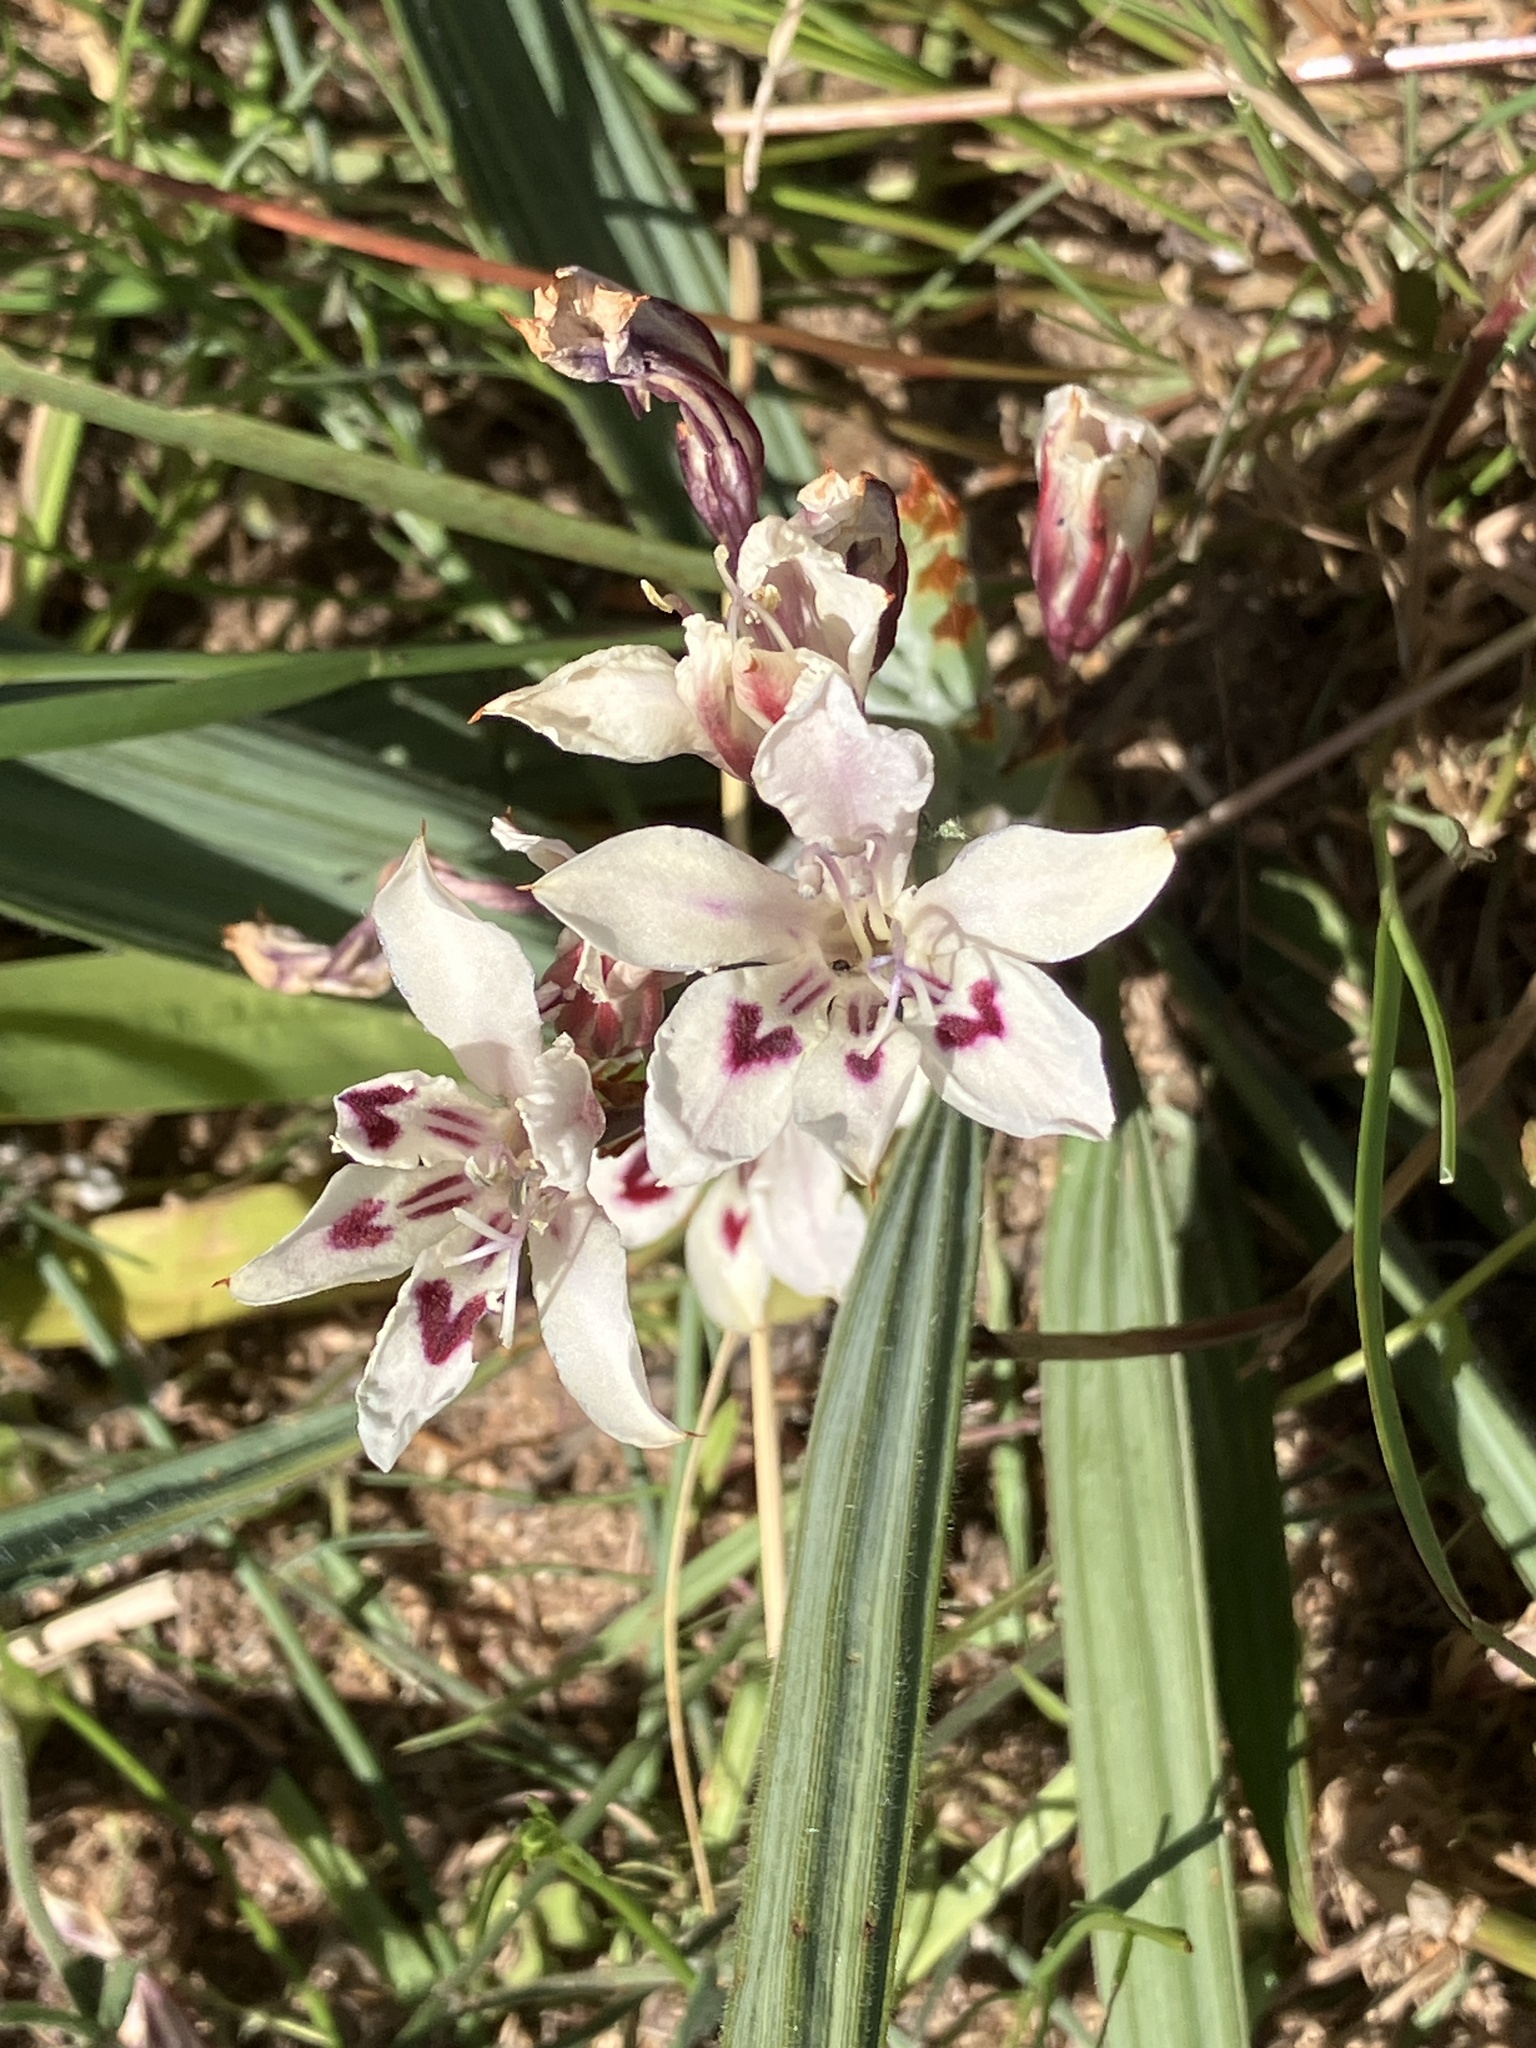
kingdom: Plantae
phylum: Tracheophyta
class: Liliopsida
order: Asparagales
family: Iridaceae
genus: Babiana
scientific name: Babiana tubulosa
